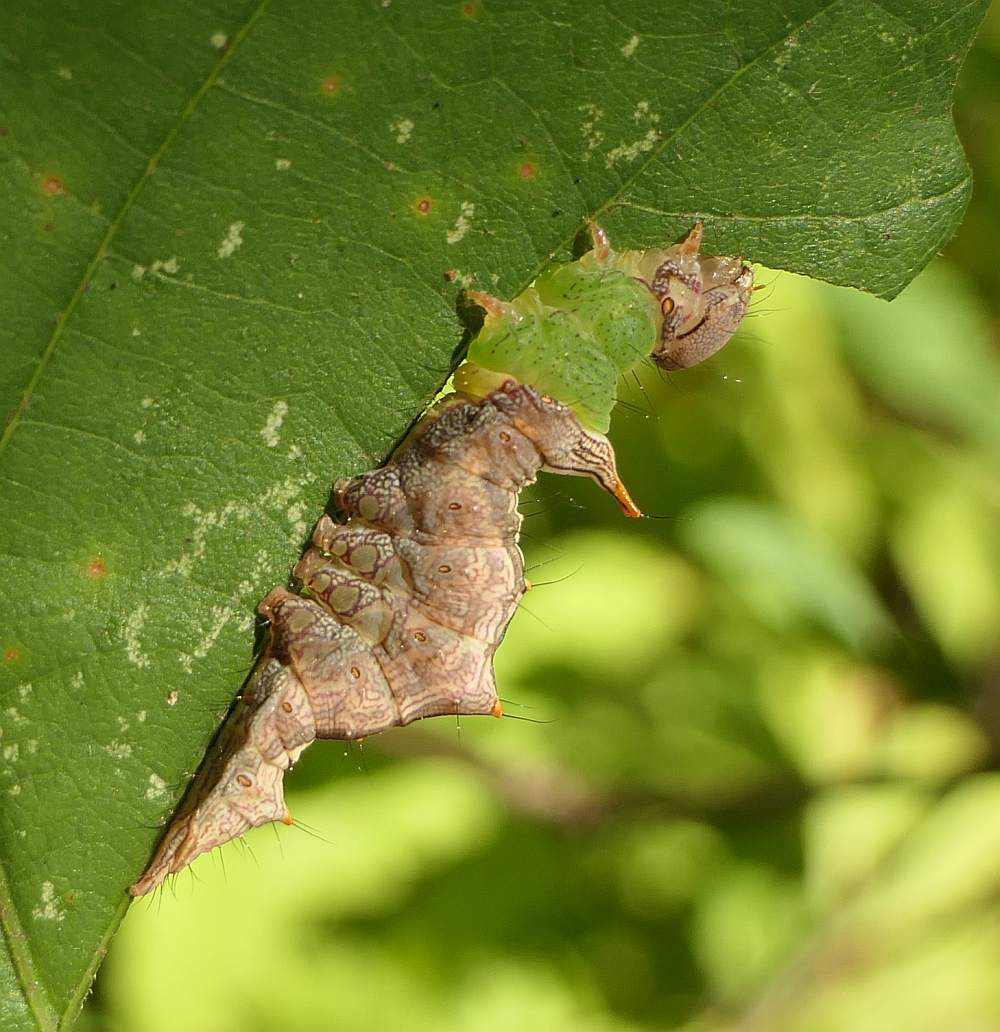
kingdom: Animalia
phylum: Arthropoda
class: Insecta
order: Lepidoptera
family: Notodontidae
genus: Schizura
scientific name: Schizura ipomaeae
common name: Morning-glory prominent
